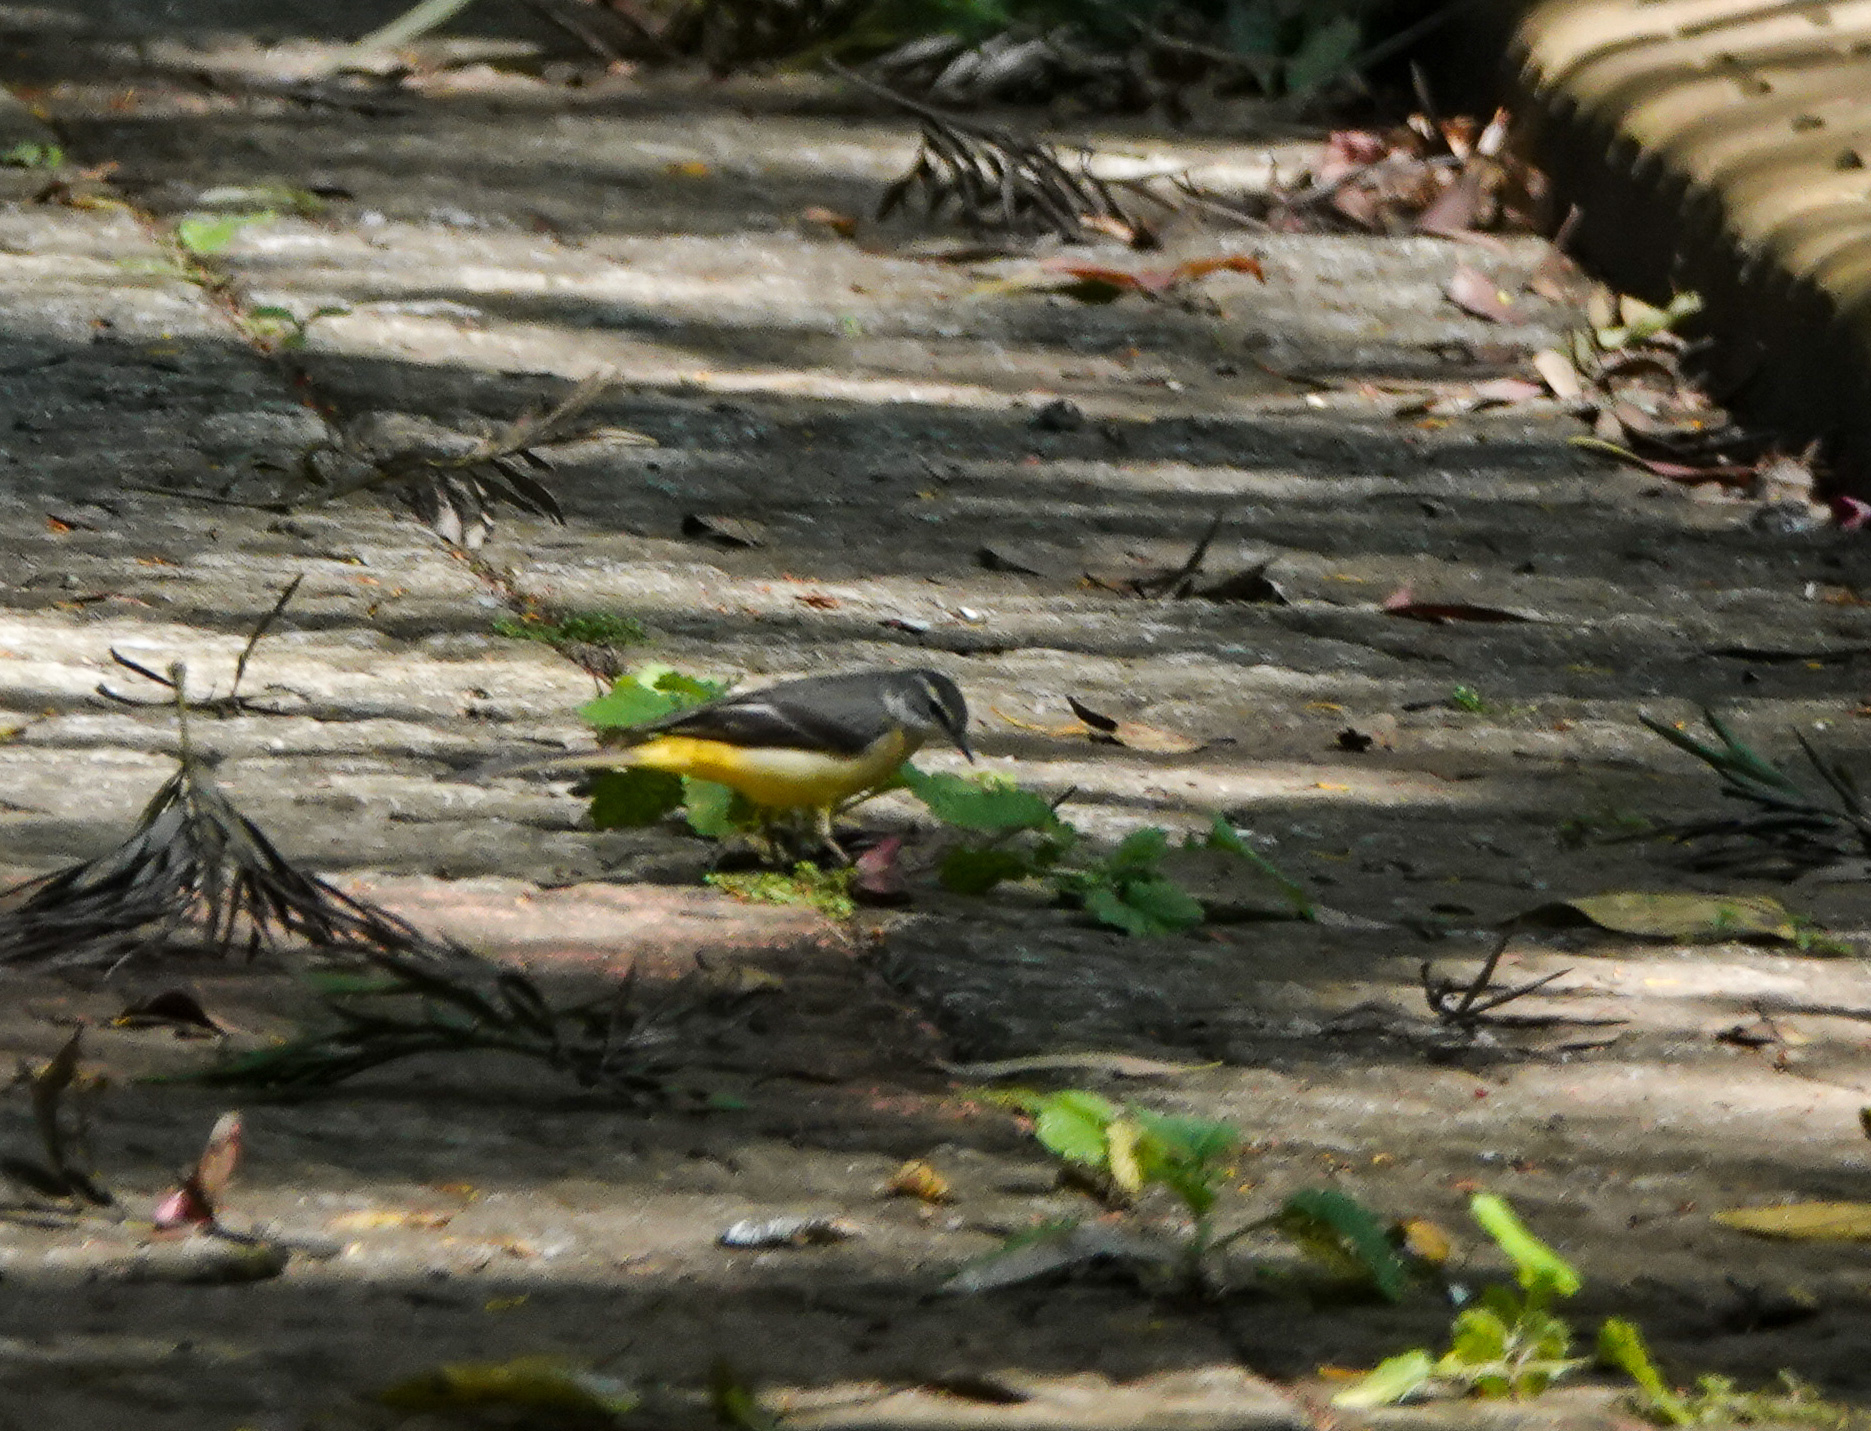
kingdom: Animalia
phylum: Chordata
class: Aves
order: Passeriformes
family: Motacillidae
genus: Motacilla
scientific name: Motacilla cinerea
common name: Grey wagtail
